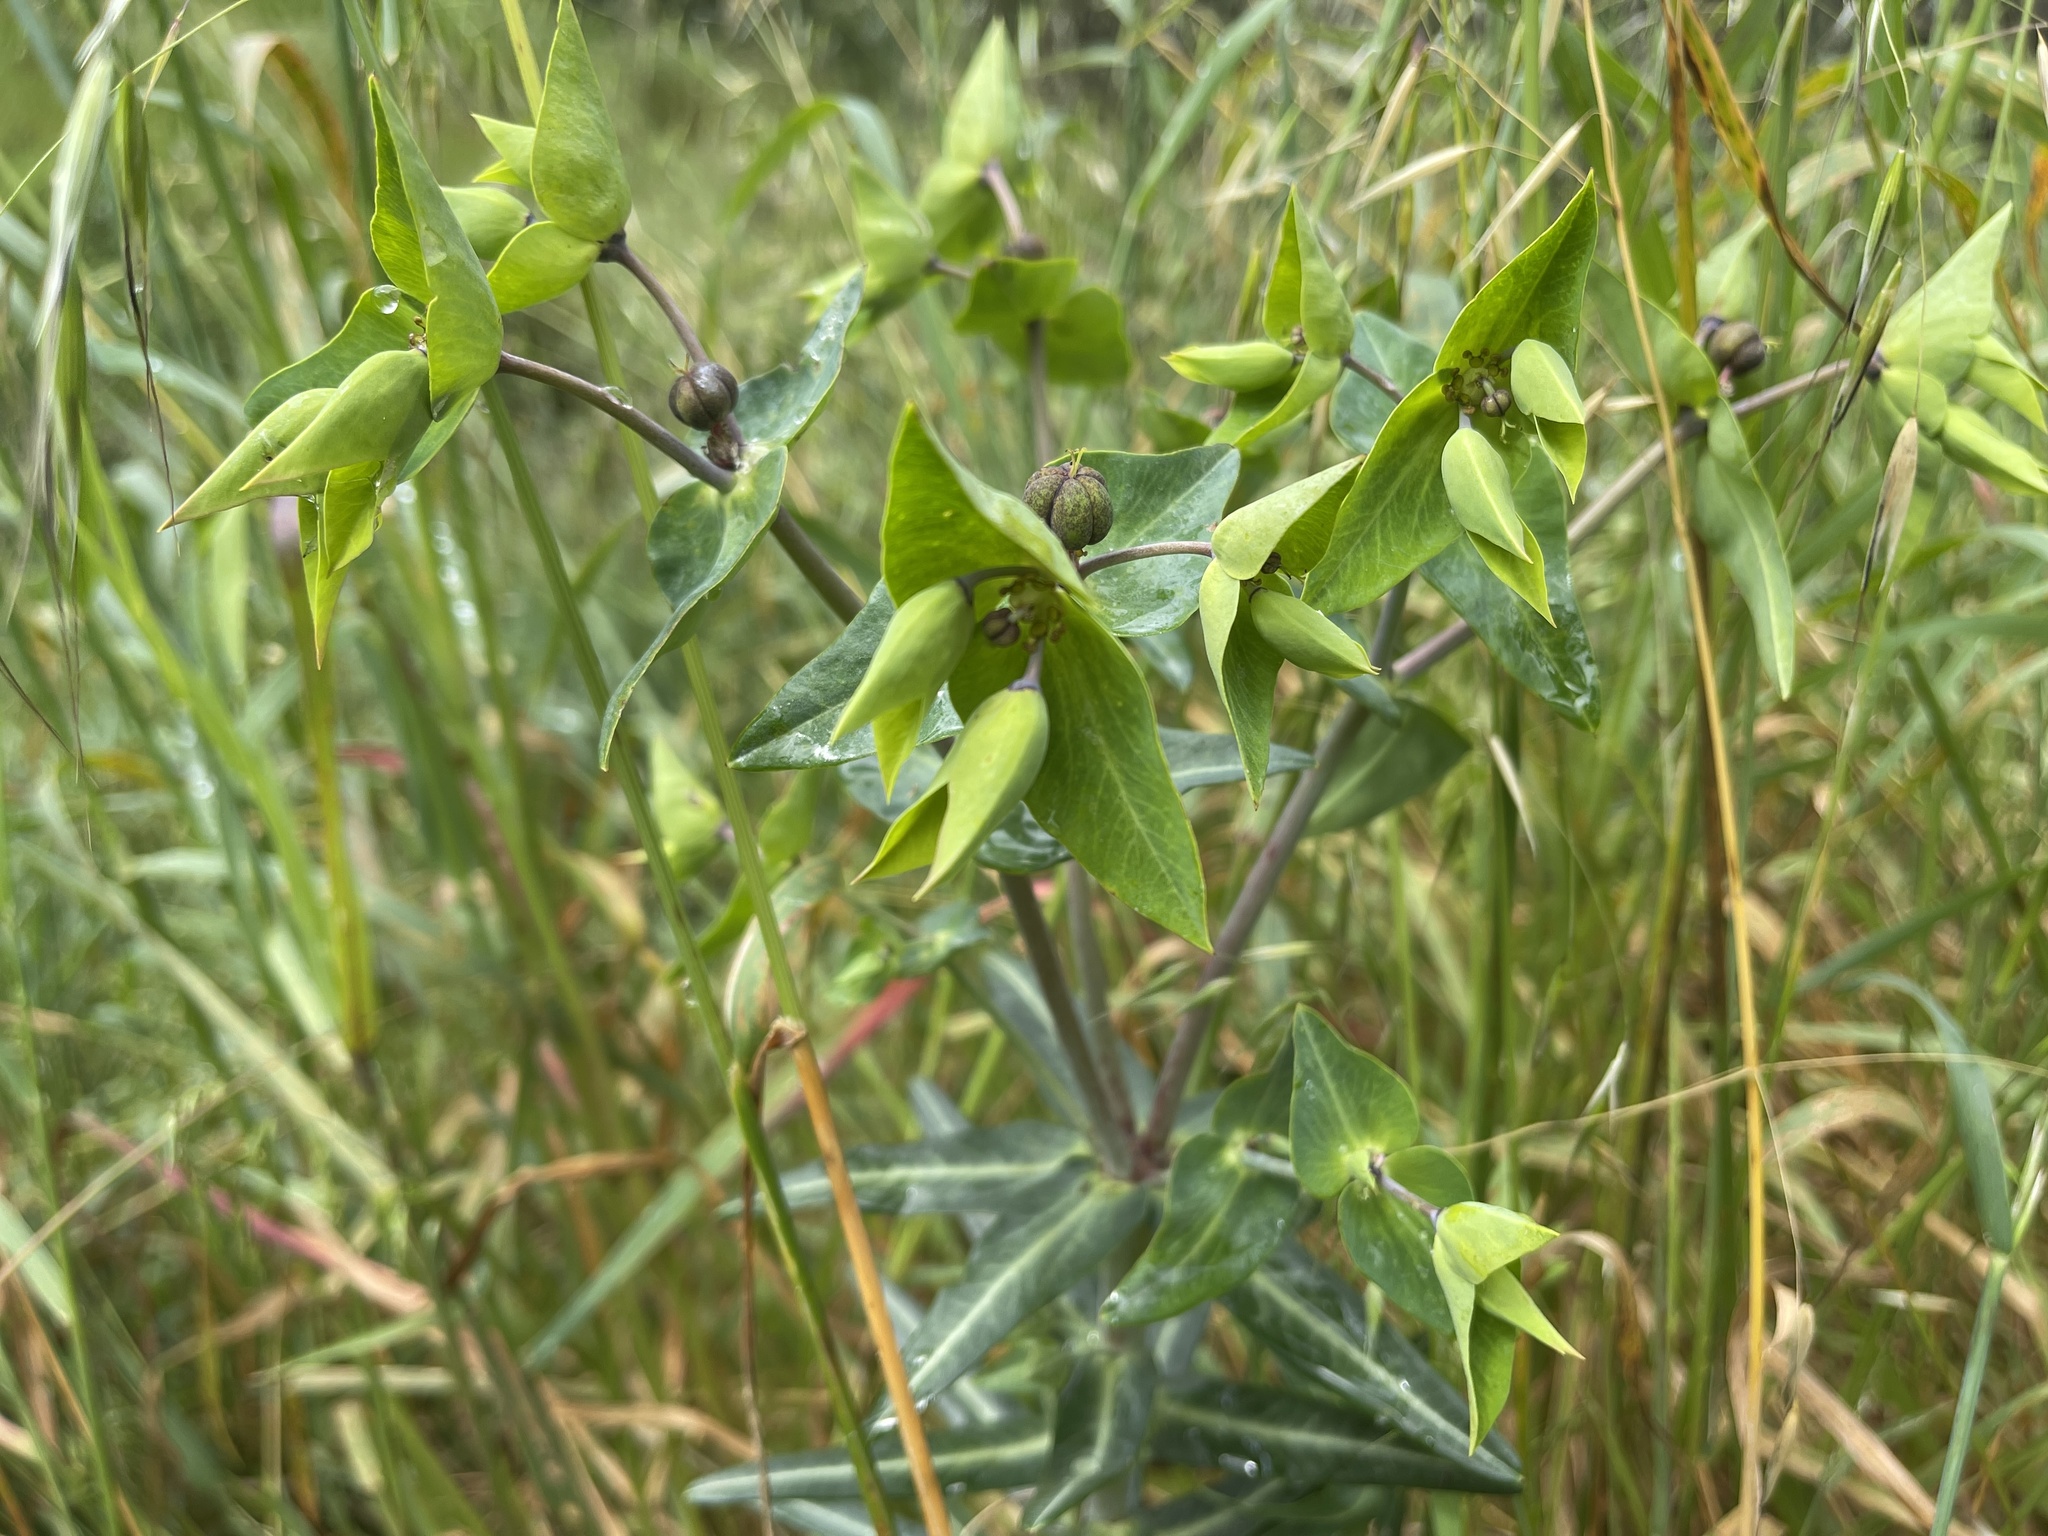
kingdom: Plantae
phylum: Tracheophyta
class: Magnoliopsida
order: Malpighiales
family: Euphorbiaceae
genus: Euphorbia
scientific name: Euphorbia lathyris
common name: Caper spurge
